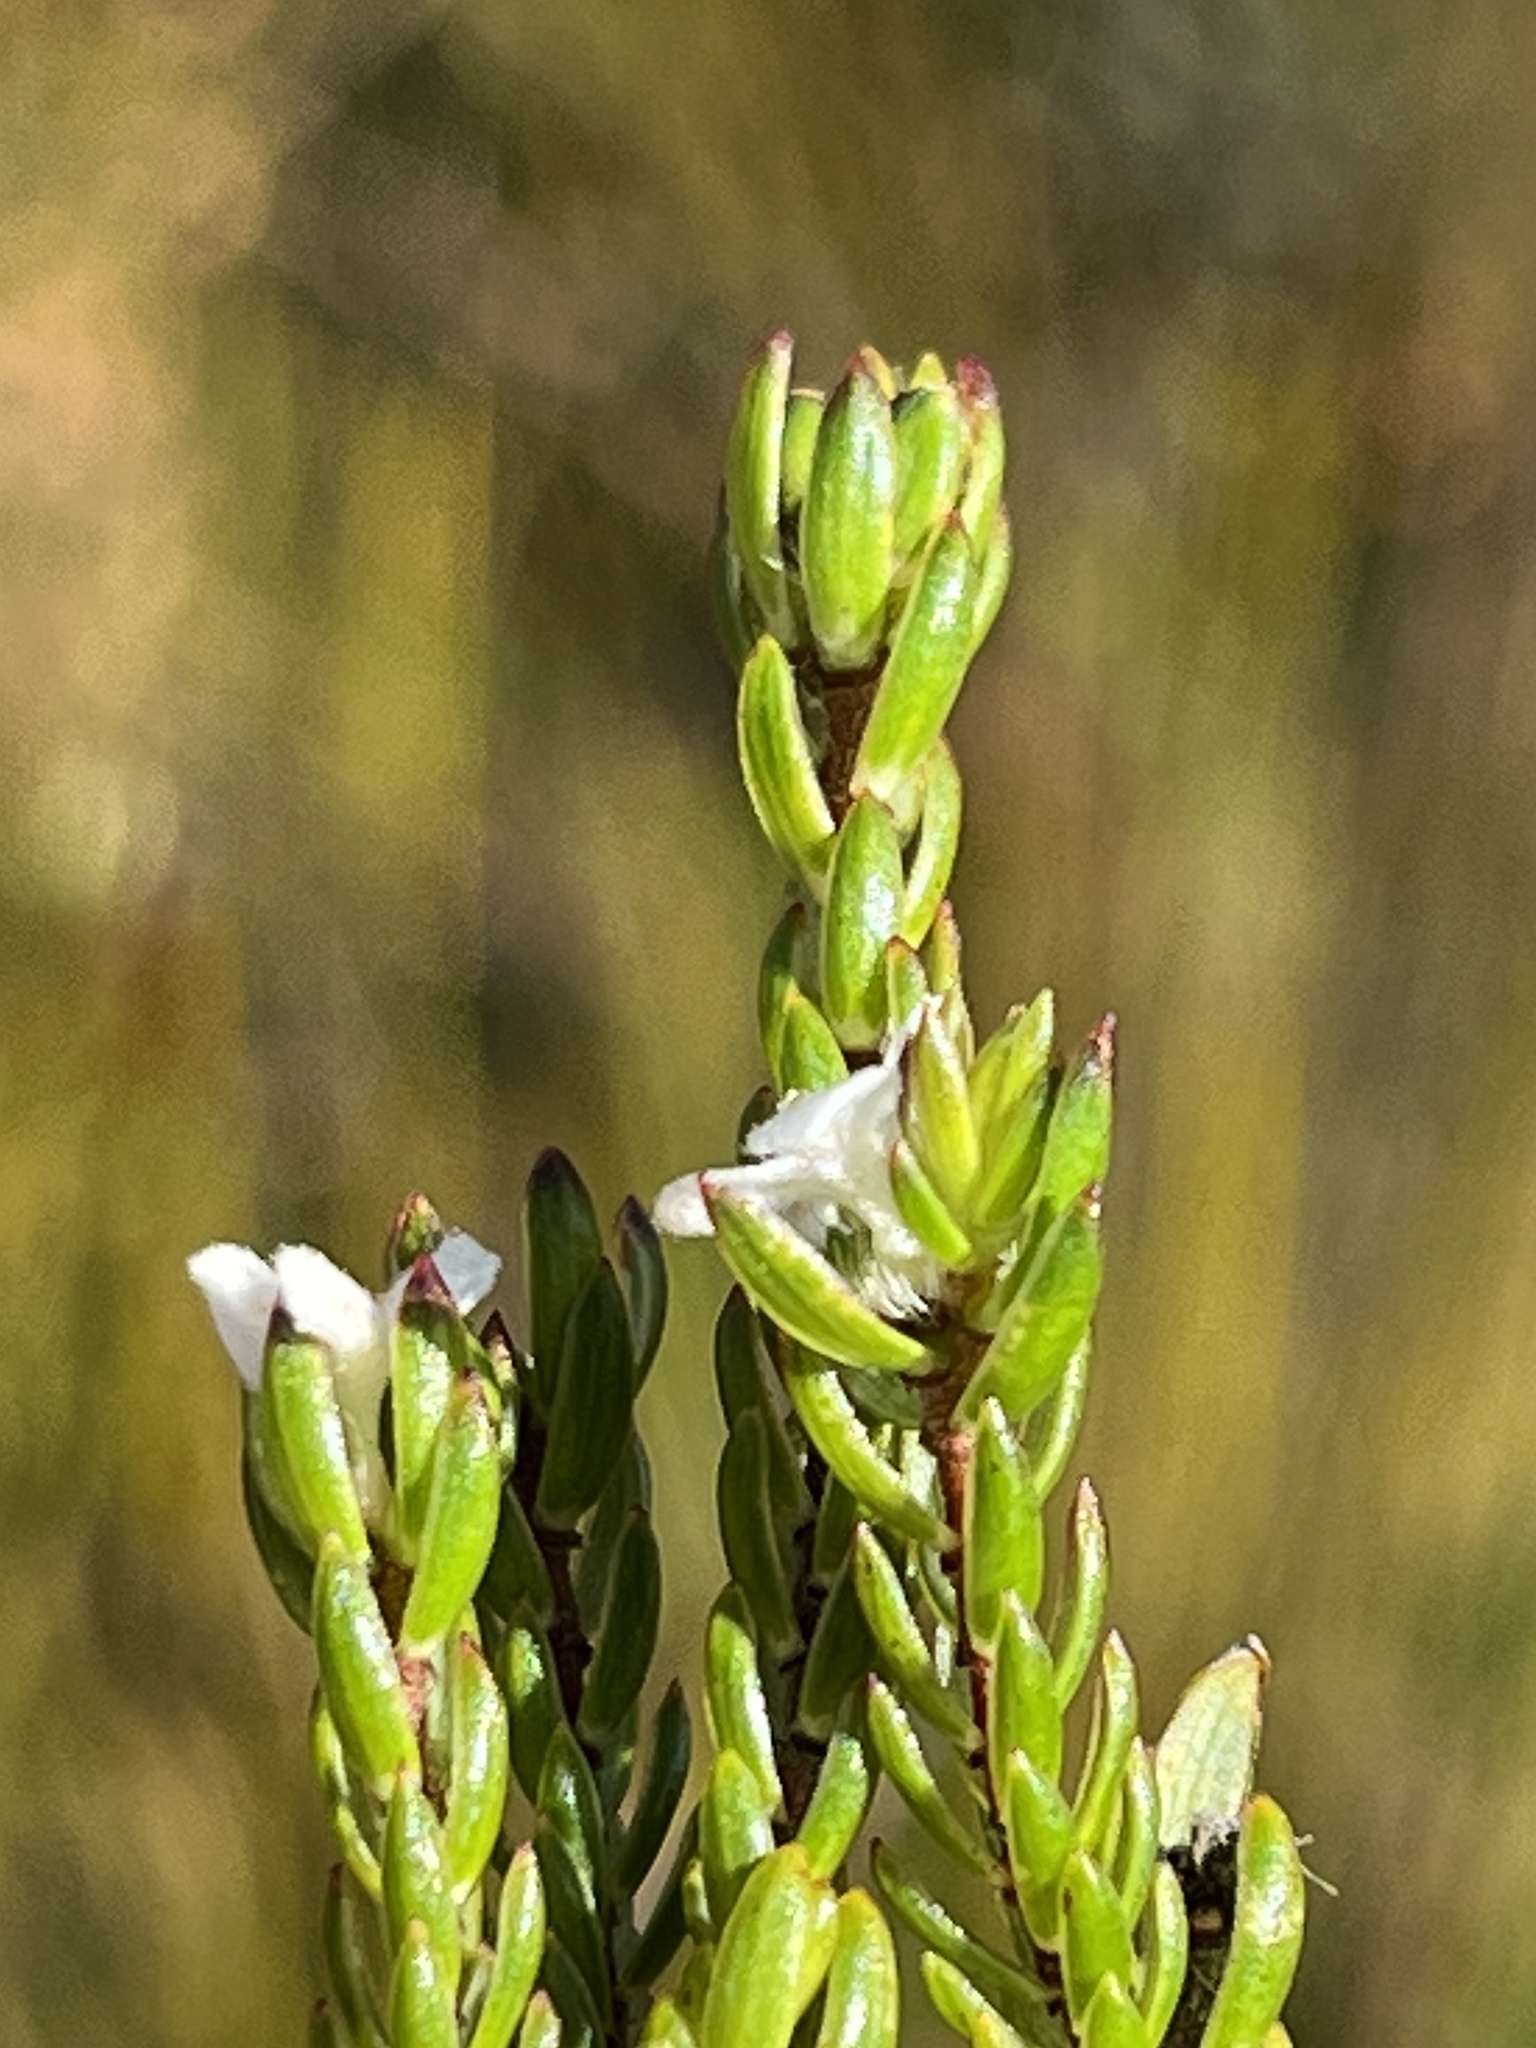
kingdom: Plantae
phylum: Tracheophyta
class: Magnoliopsida
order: Malvales
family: Thymelaeaceae
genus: Lachnaea
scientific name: Lachnaea sociorum
